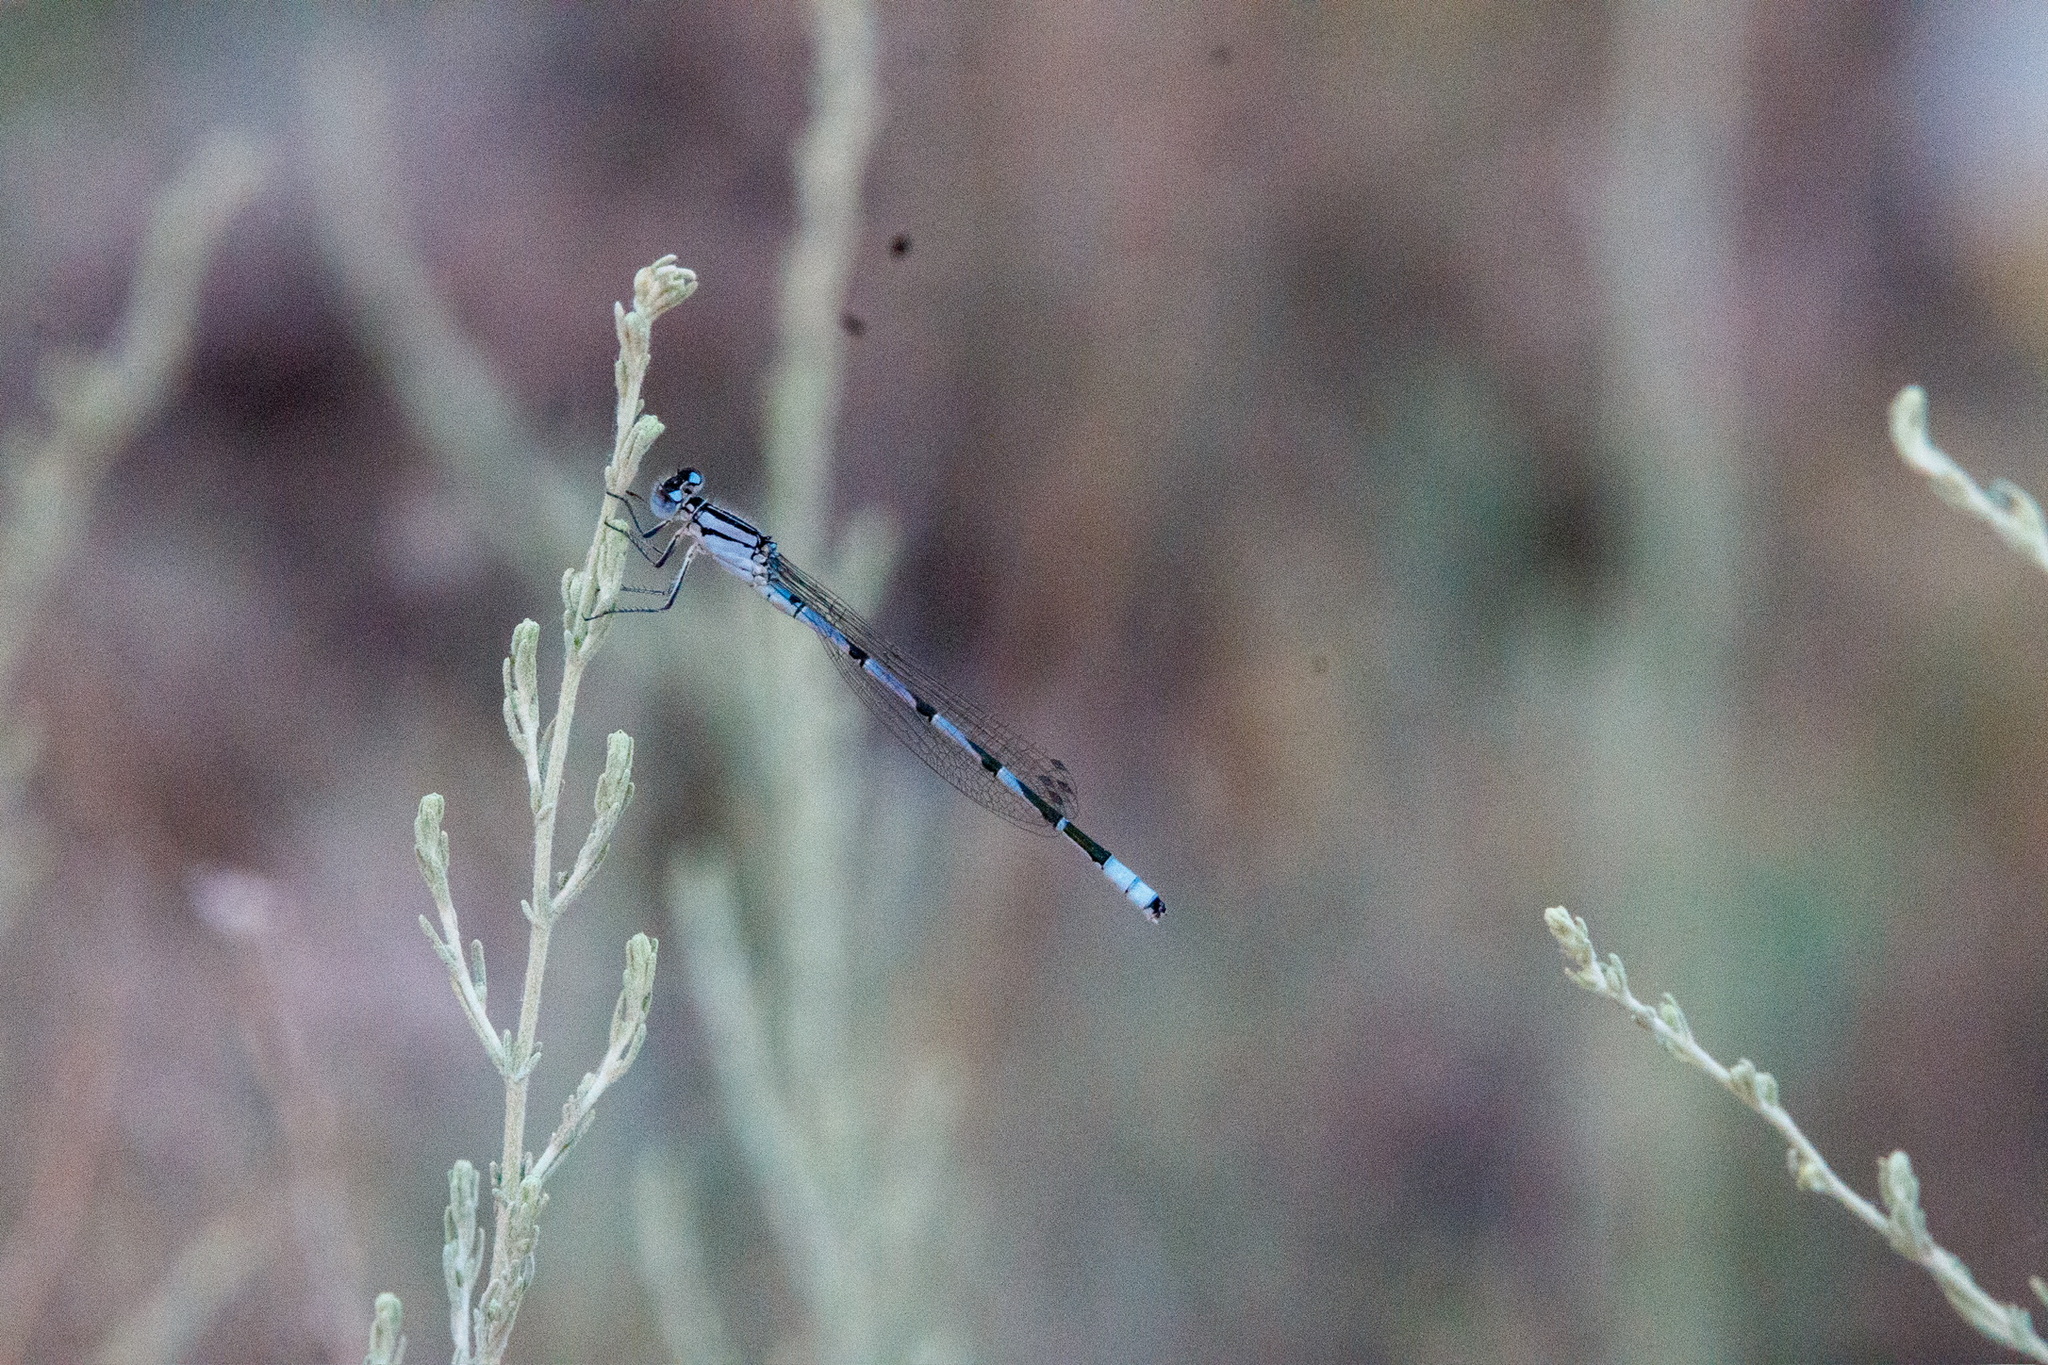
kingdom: Animalia
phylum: Arthropoda
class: Insecta
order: Odonata
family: Coenagrionidae
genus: Enallagma
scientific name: Enallagma cyathigerum
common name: Common blue damselfly
